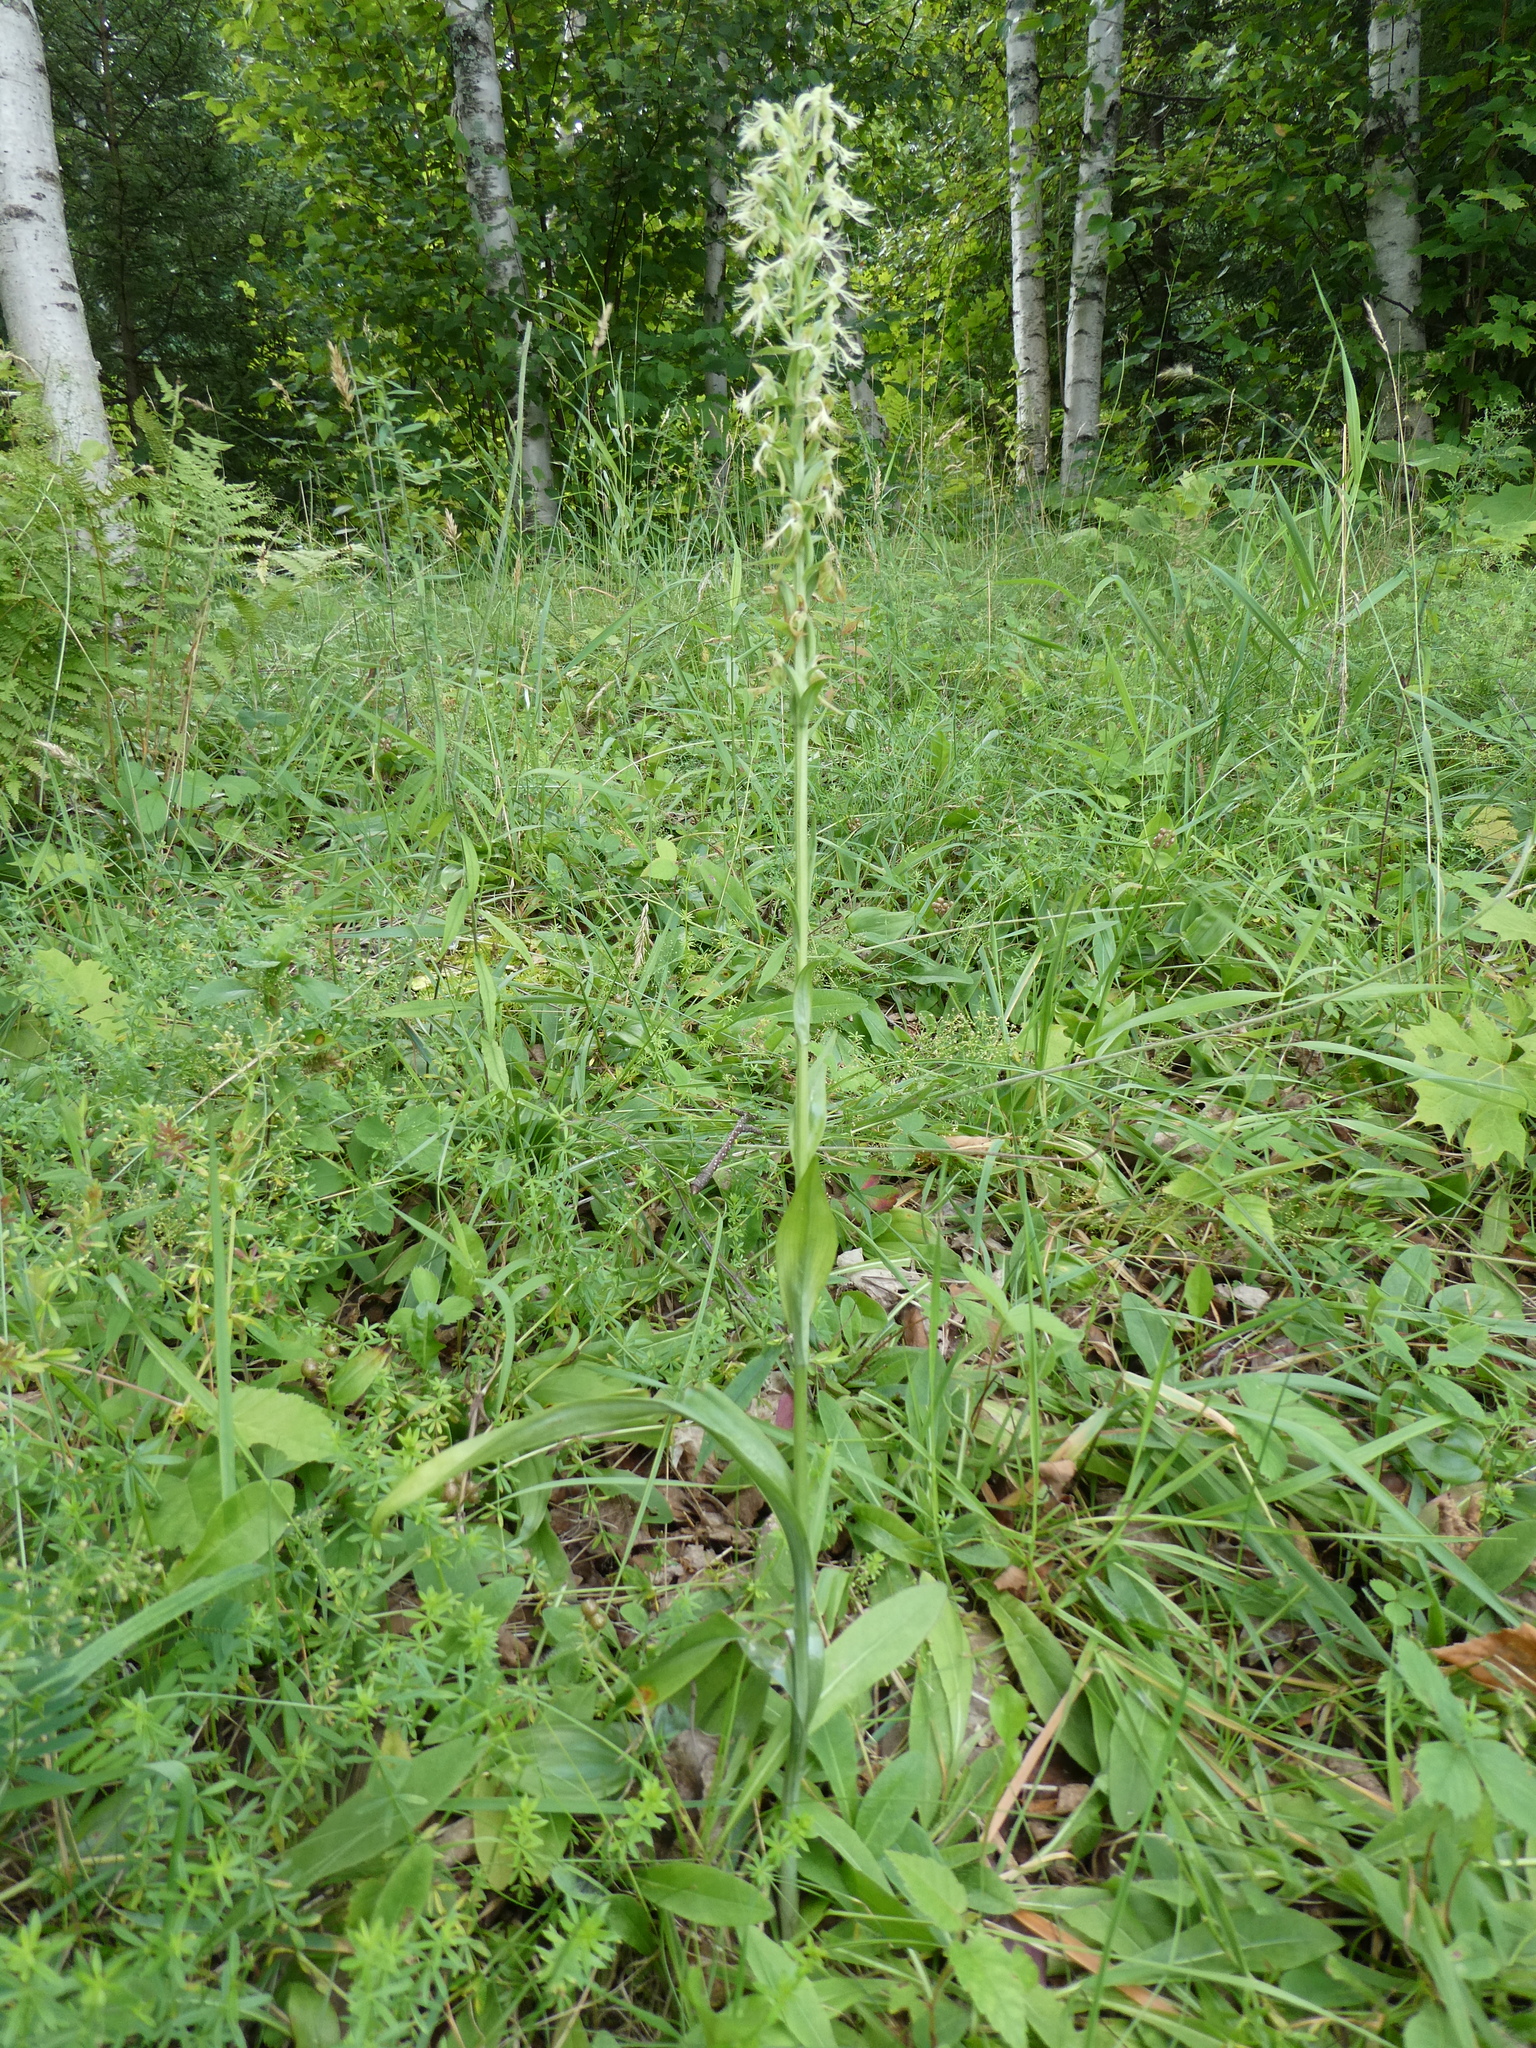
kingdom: Plantae
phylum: Tracheophyta
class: Liliopsida
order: Asparagales
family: Orchidaceae
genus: Platanthera
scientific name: Platanthera lacera
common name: Green fringed orchid
